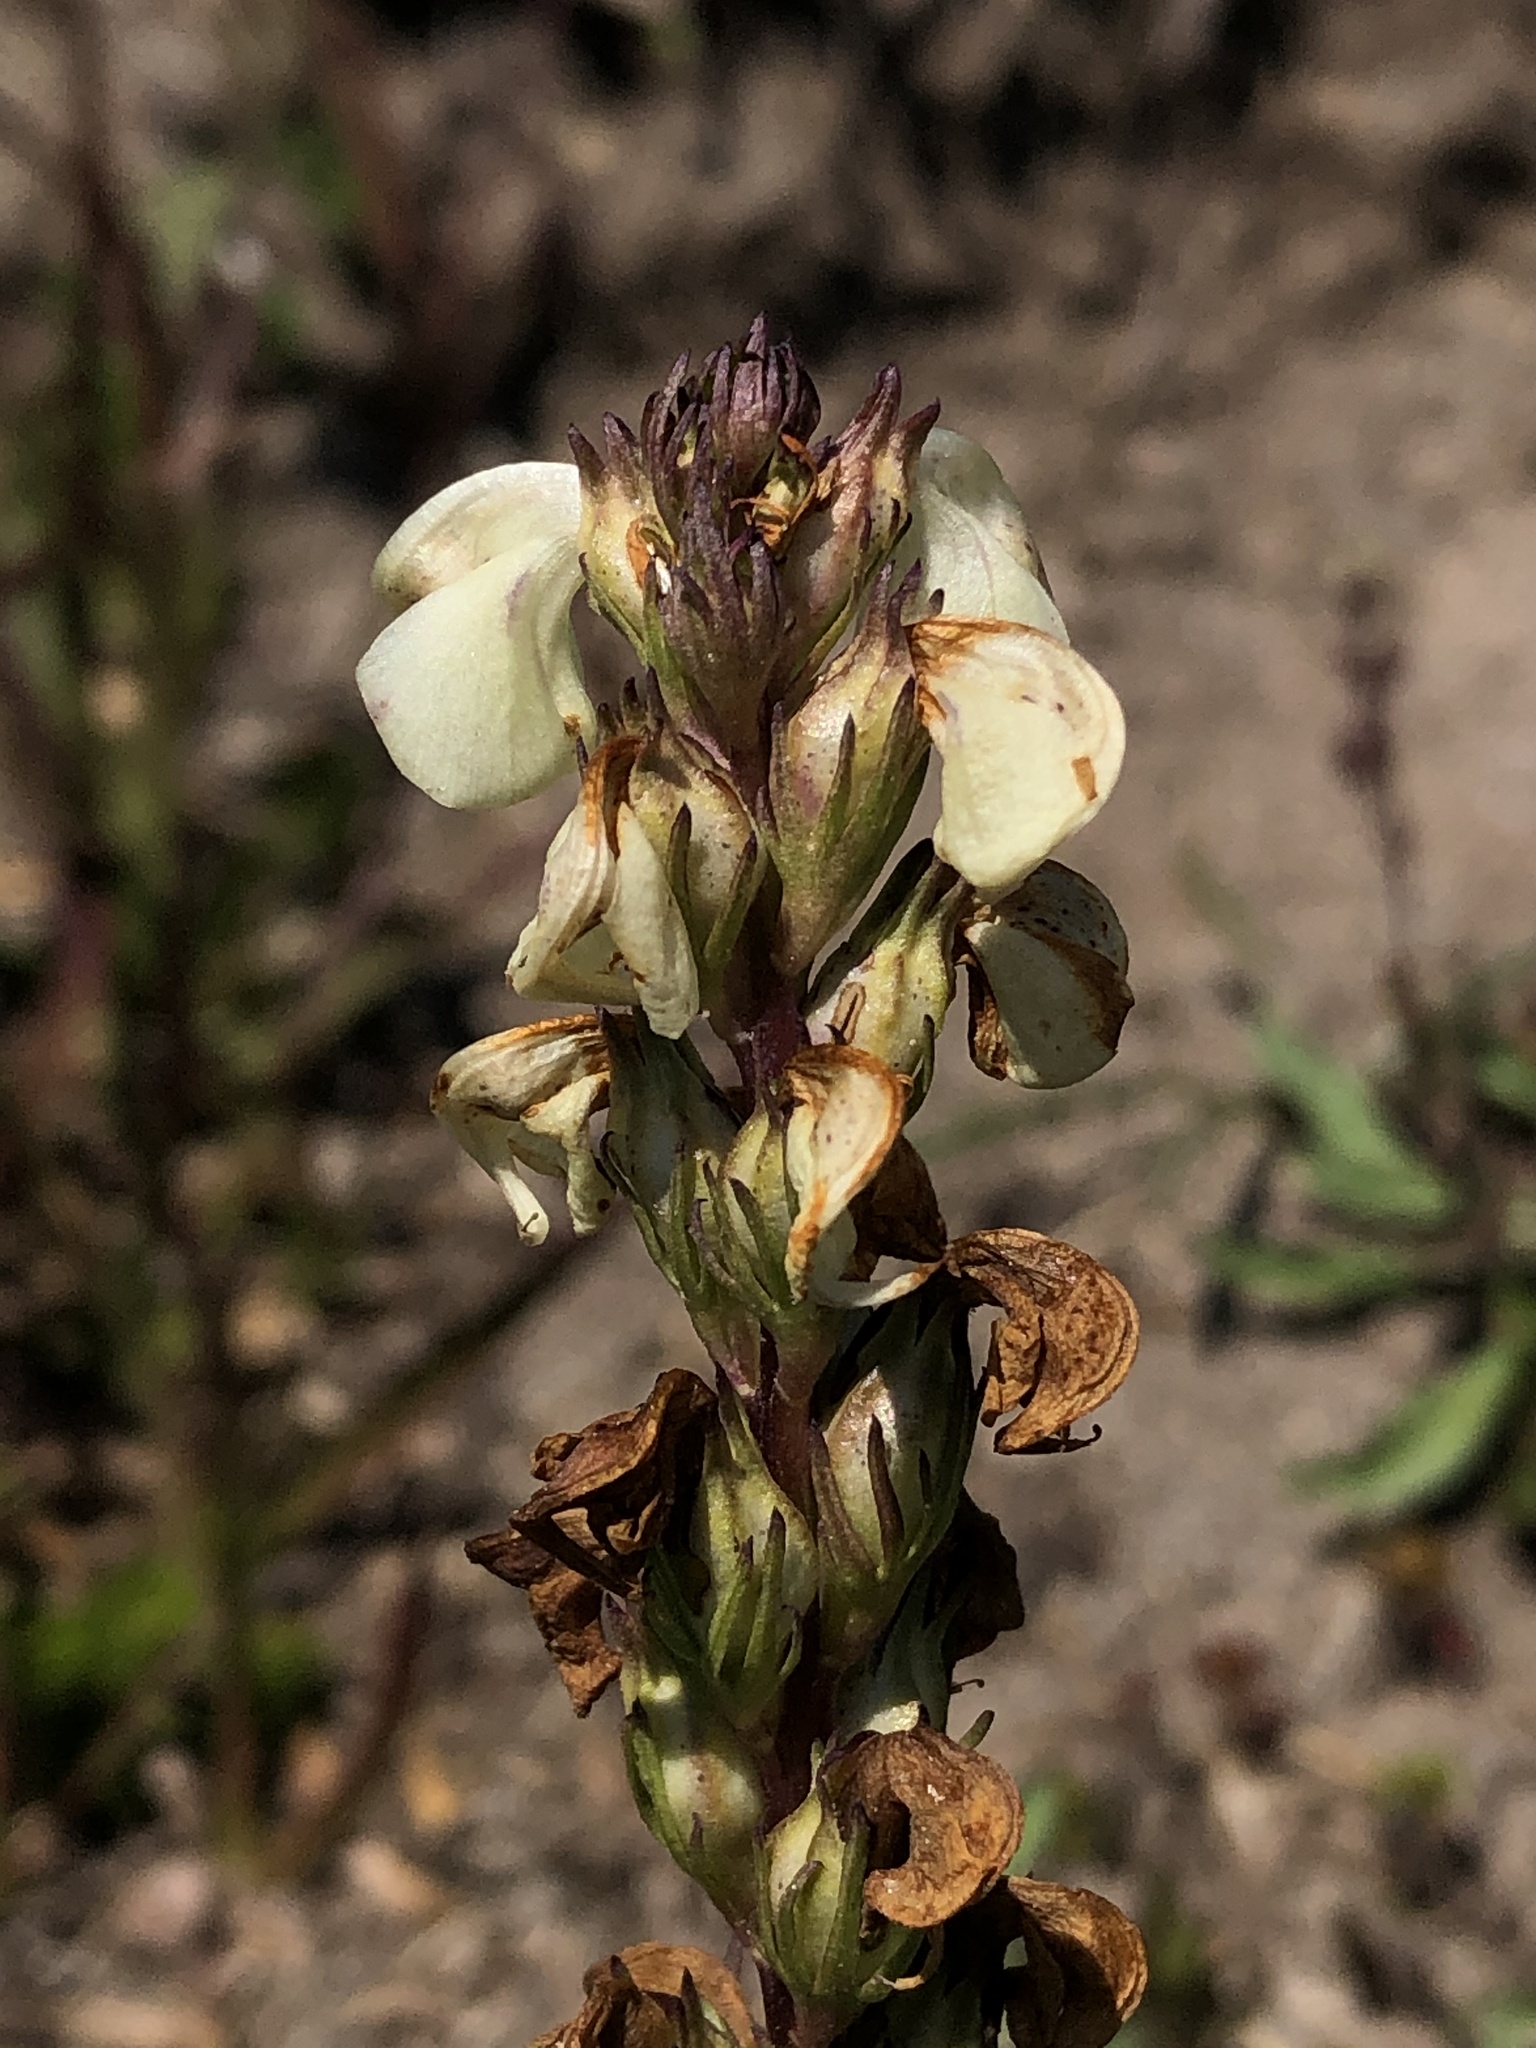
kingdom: Plantae
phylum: Tracheophyta
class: Magnoliopsida
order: Lamiales
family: Orobanchaceae
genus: Pedicularis
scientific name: Pedicularis contorta
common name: Coiled lousewort
